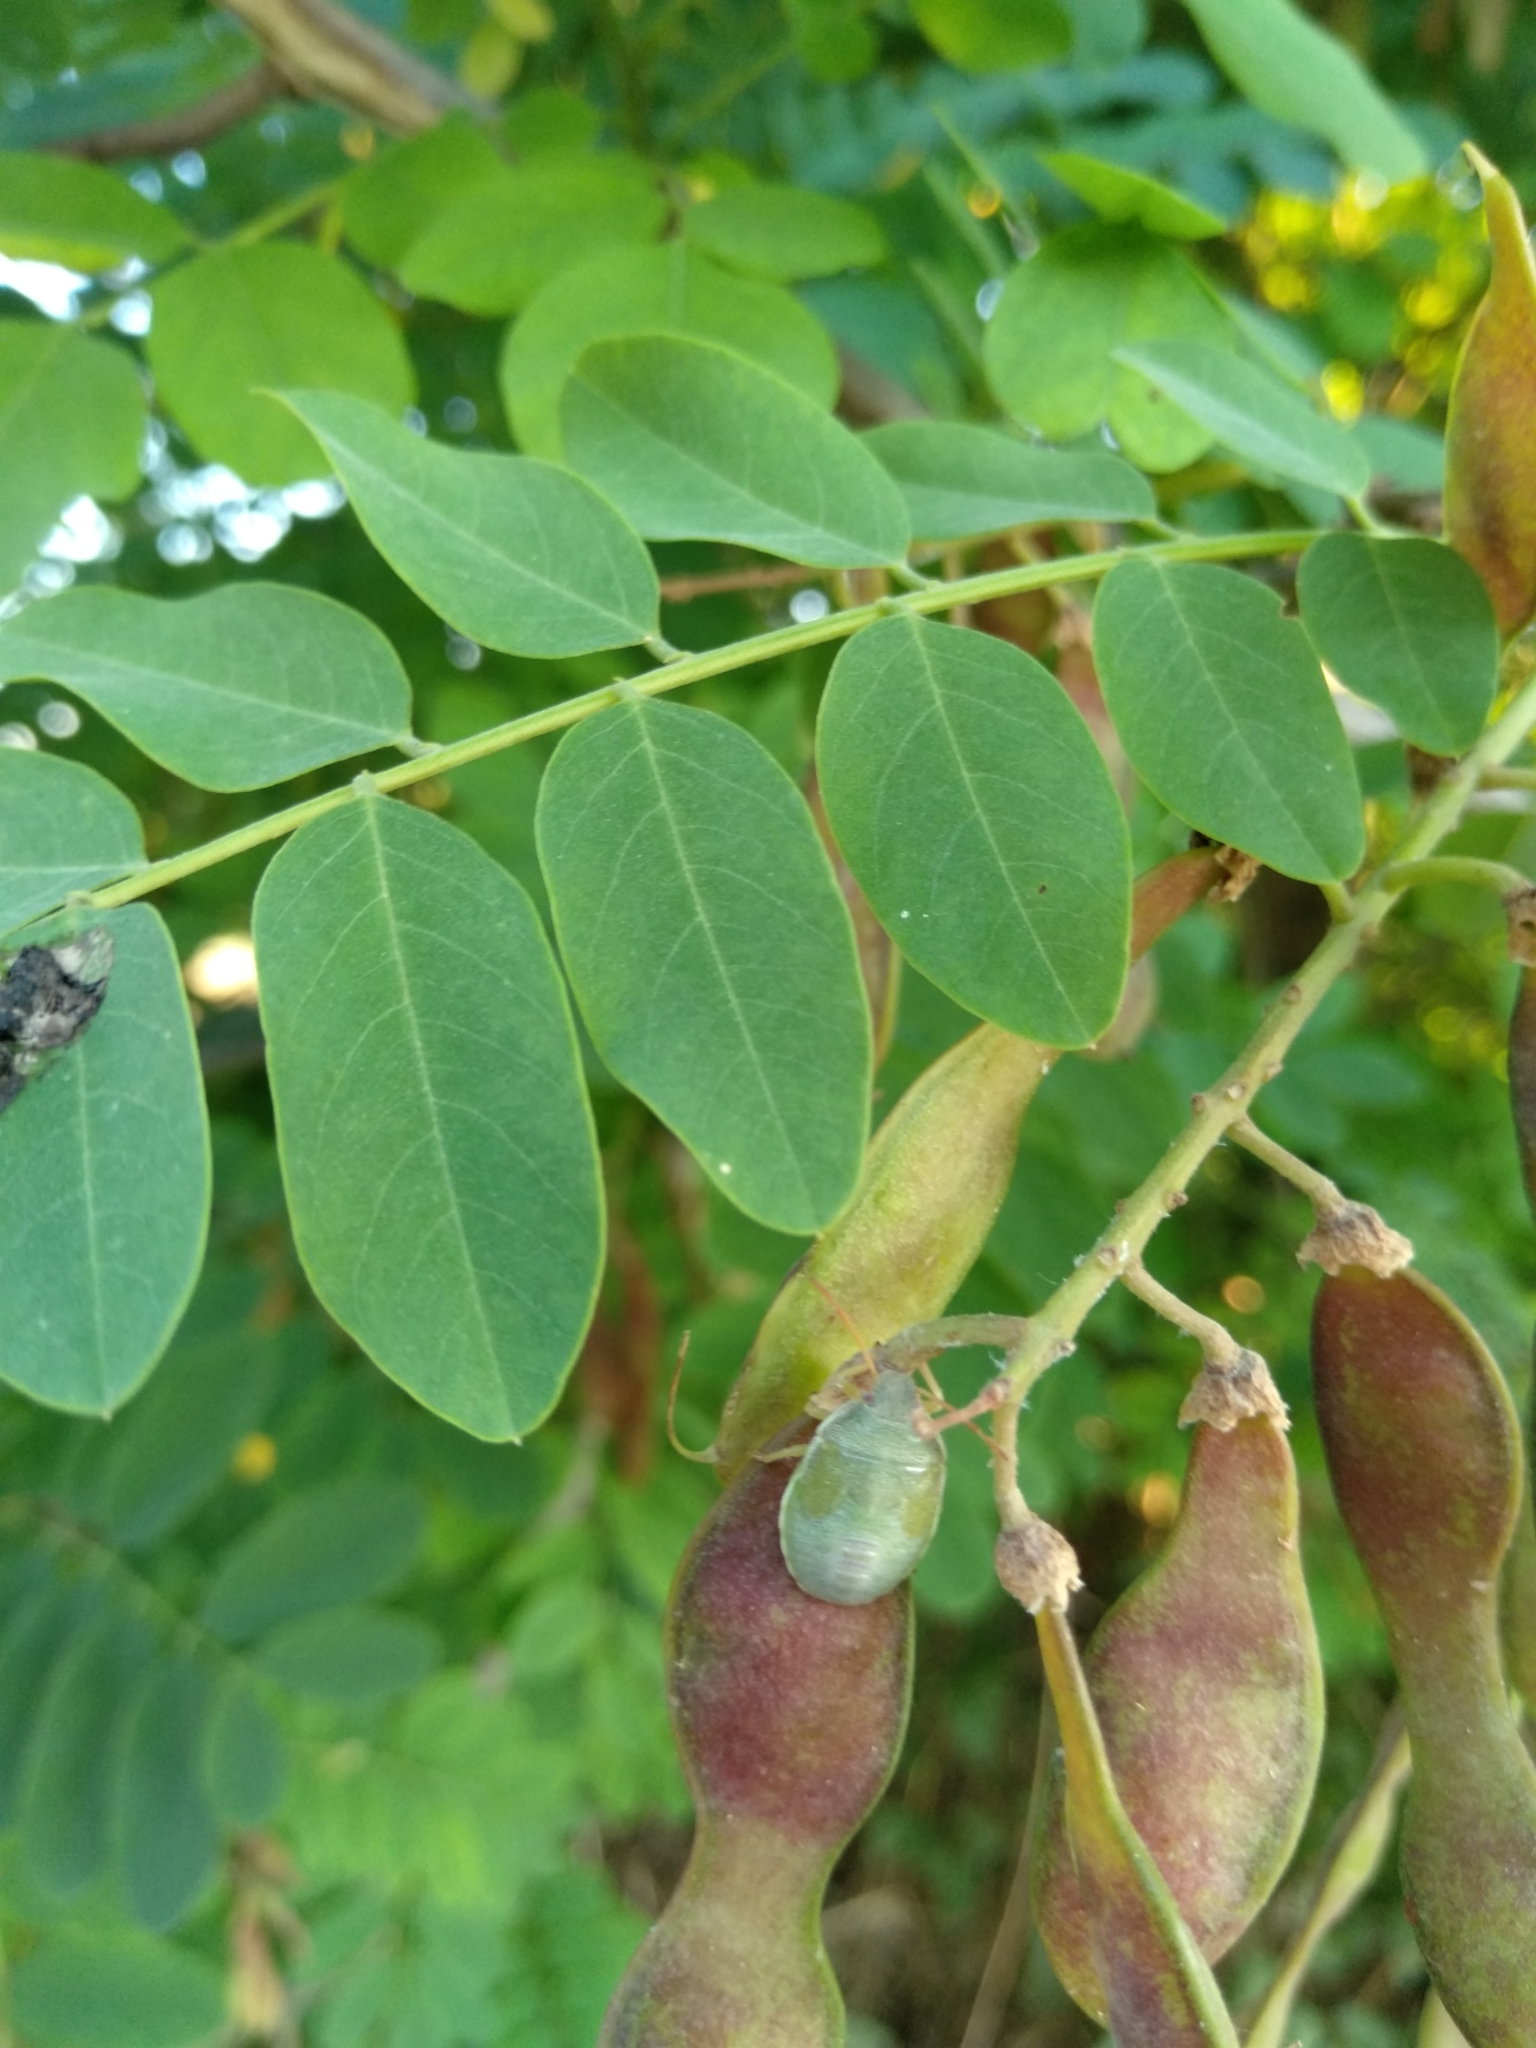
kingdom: Animalia
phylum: Arthropoda
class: Insecta
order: Hemiptera
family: Pentatomidae
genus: Piezodorus
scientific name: Piezodorus lituratus
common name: Stink bug
